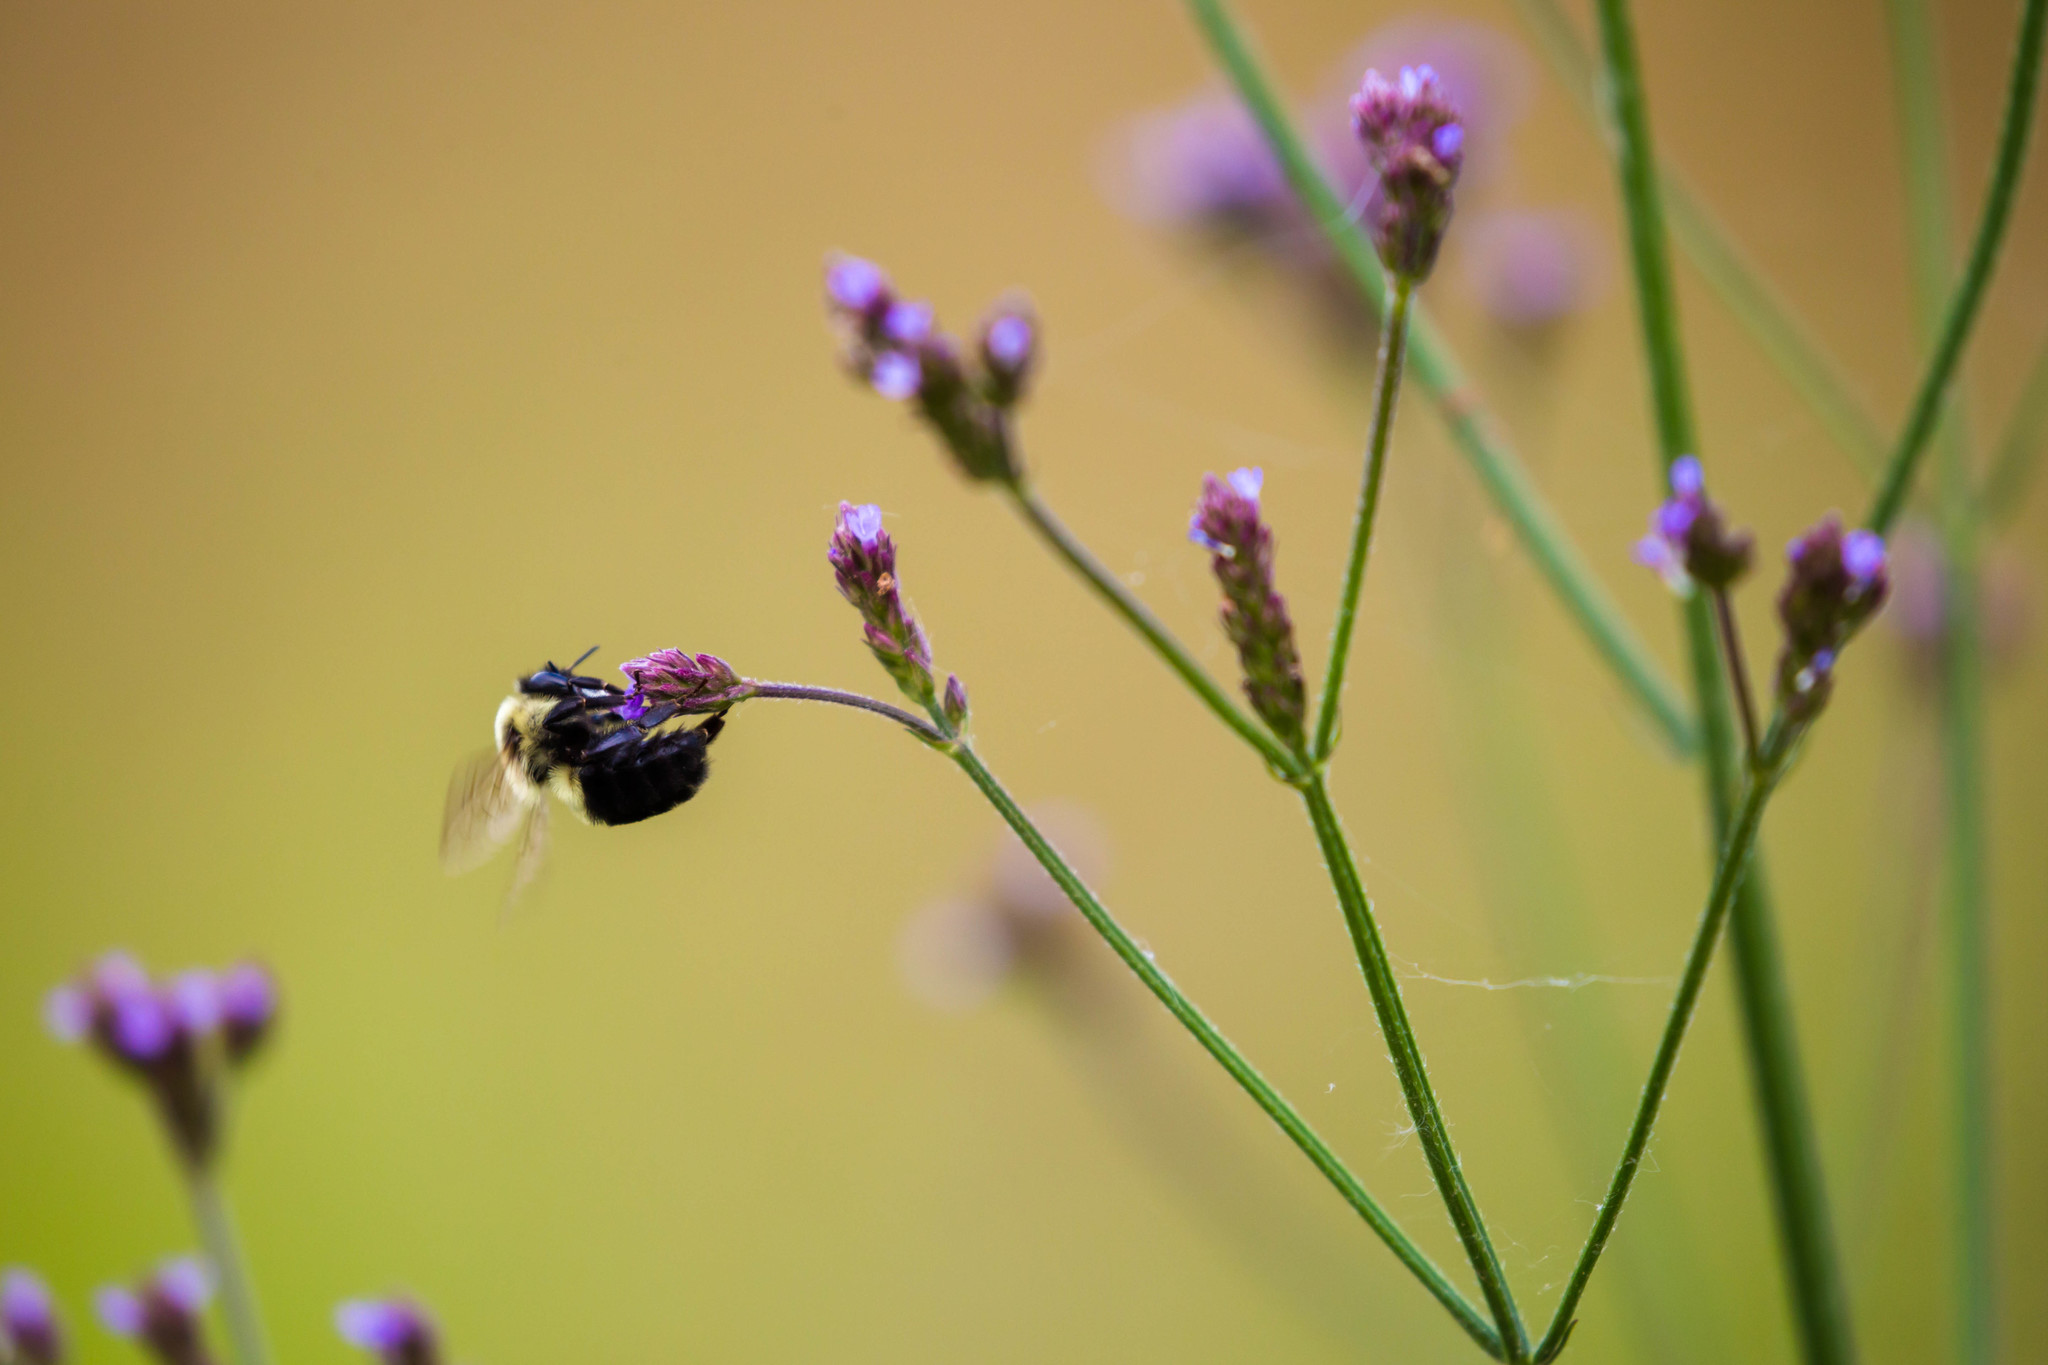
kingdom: Animalia
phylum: Arthropoda
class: Insecta
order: Hymenoptera
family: Apidae
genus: Bombus
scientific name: Bombus impatiens
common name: Common eastern bumble bee
